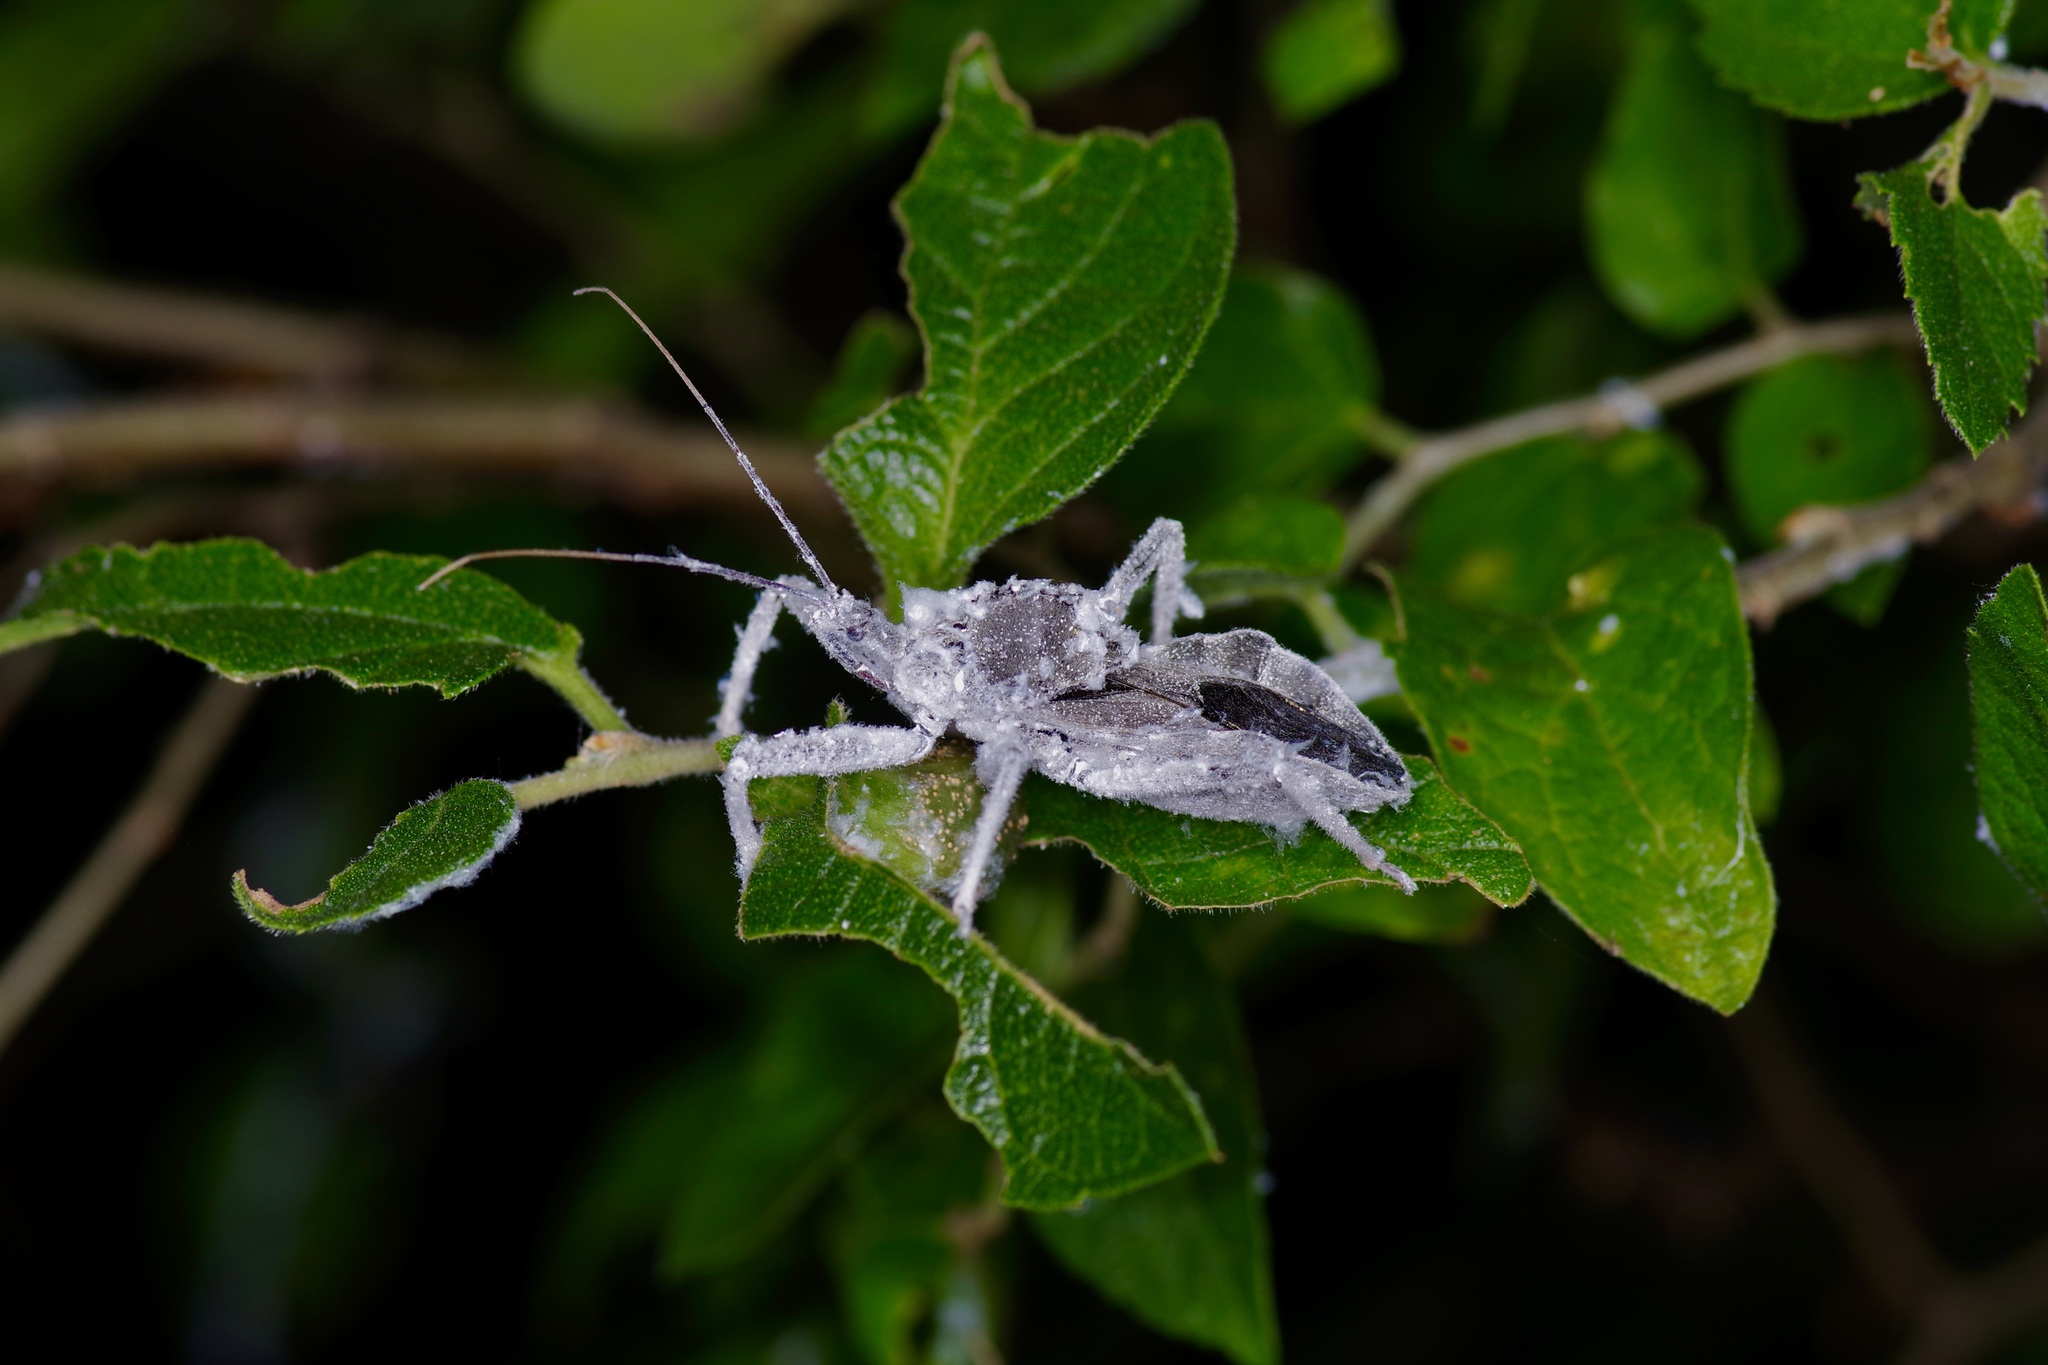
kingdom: Animalia
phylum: Arthropoda
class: Insecta
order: Hemiptera
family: Reduviidae
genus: Arilus
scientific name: Arilus cristatus
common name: North american wheel bug
